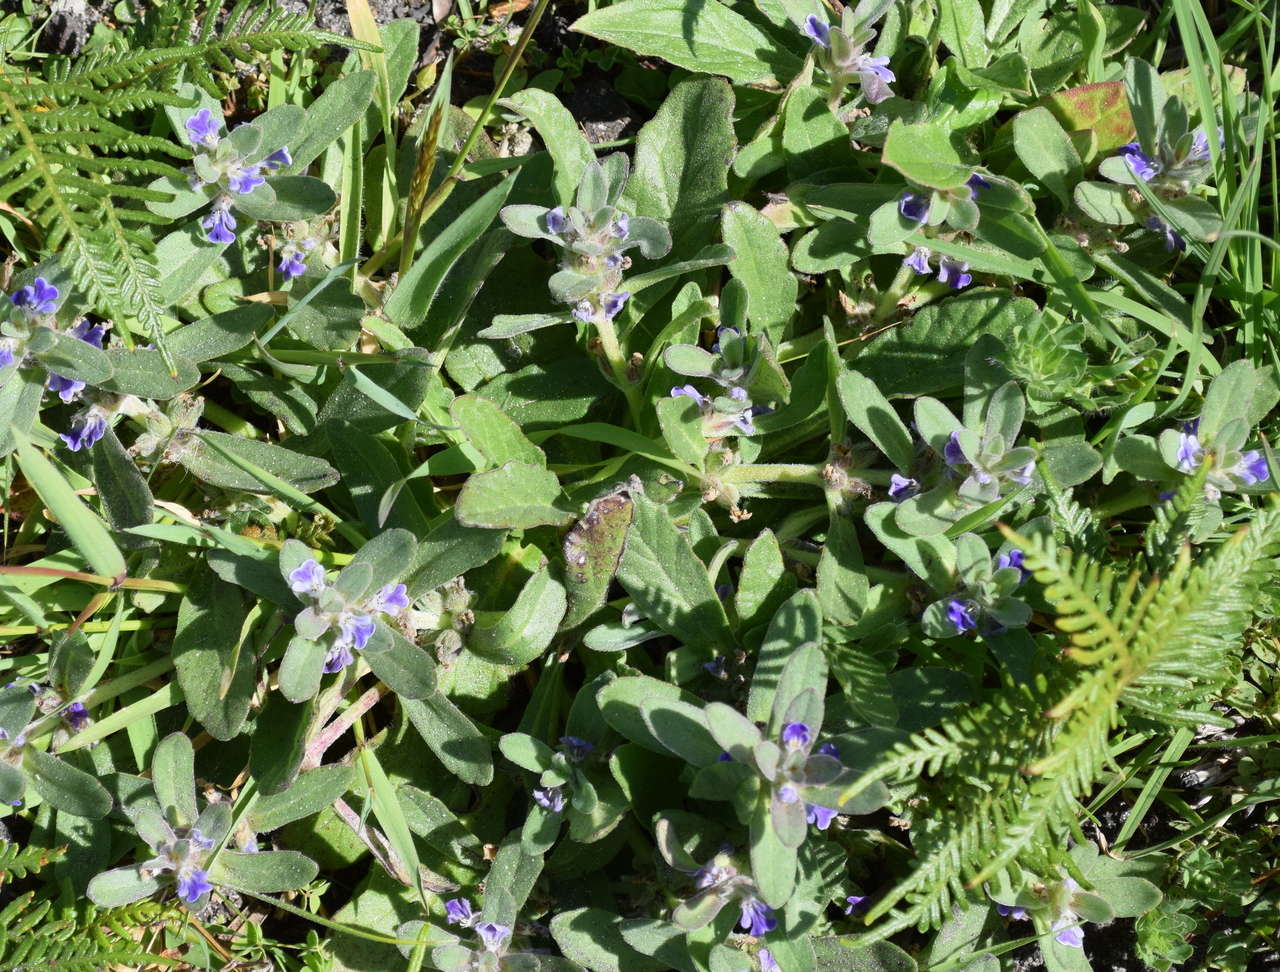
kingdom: Plantae
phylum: Tracheophyta
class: Magnoliopsida
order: Lamiales
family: Lamiaceae
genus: Ajuga
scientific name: Ajuga australis
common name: Australian bugle
